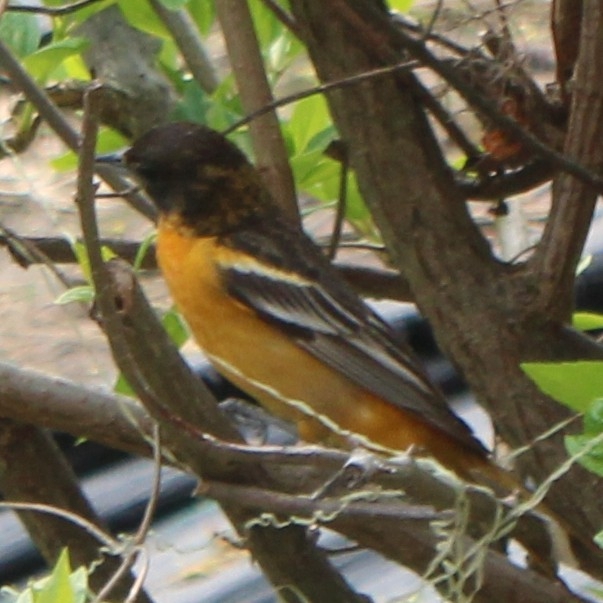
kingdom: Animalia
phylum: Chordata
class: Aves
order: Passeriformes
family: Icteridae
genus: Icterus
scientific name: Icterus galbula
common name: Baltimore oriole
